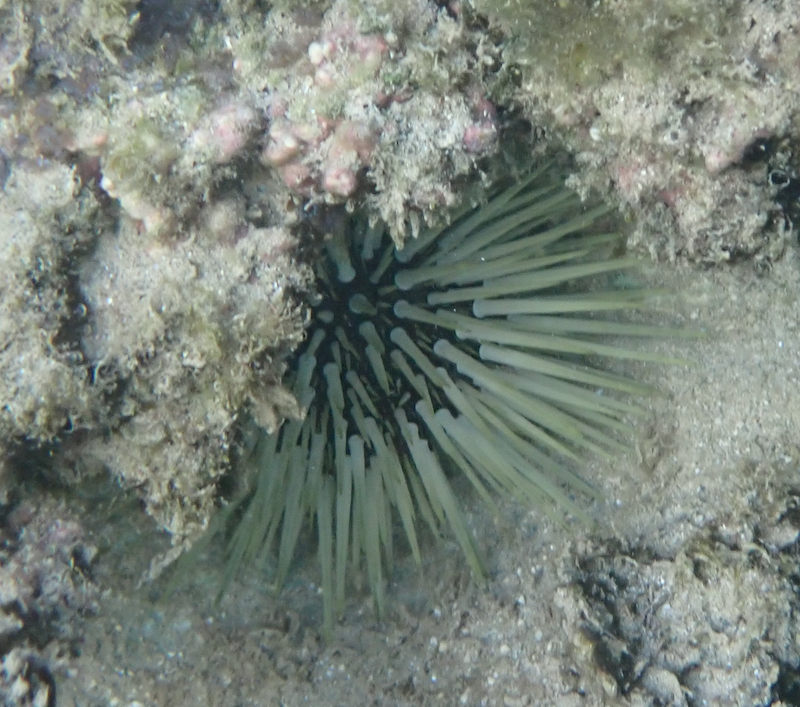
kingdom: Animalia
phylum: Echinodermata
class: Echinoidea
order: Camarodonta
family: Echinometridae
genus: Echinometra
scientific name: Echinometra mathaei
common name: Rock-boring urchin
